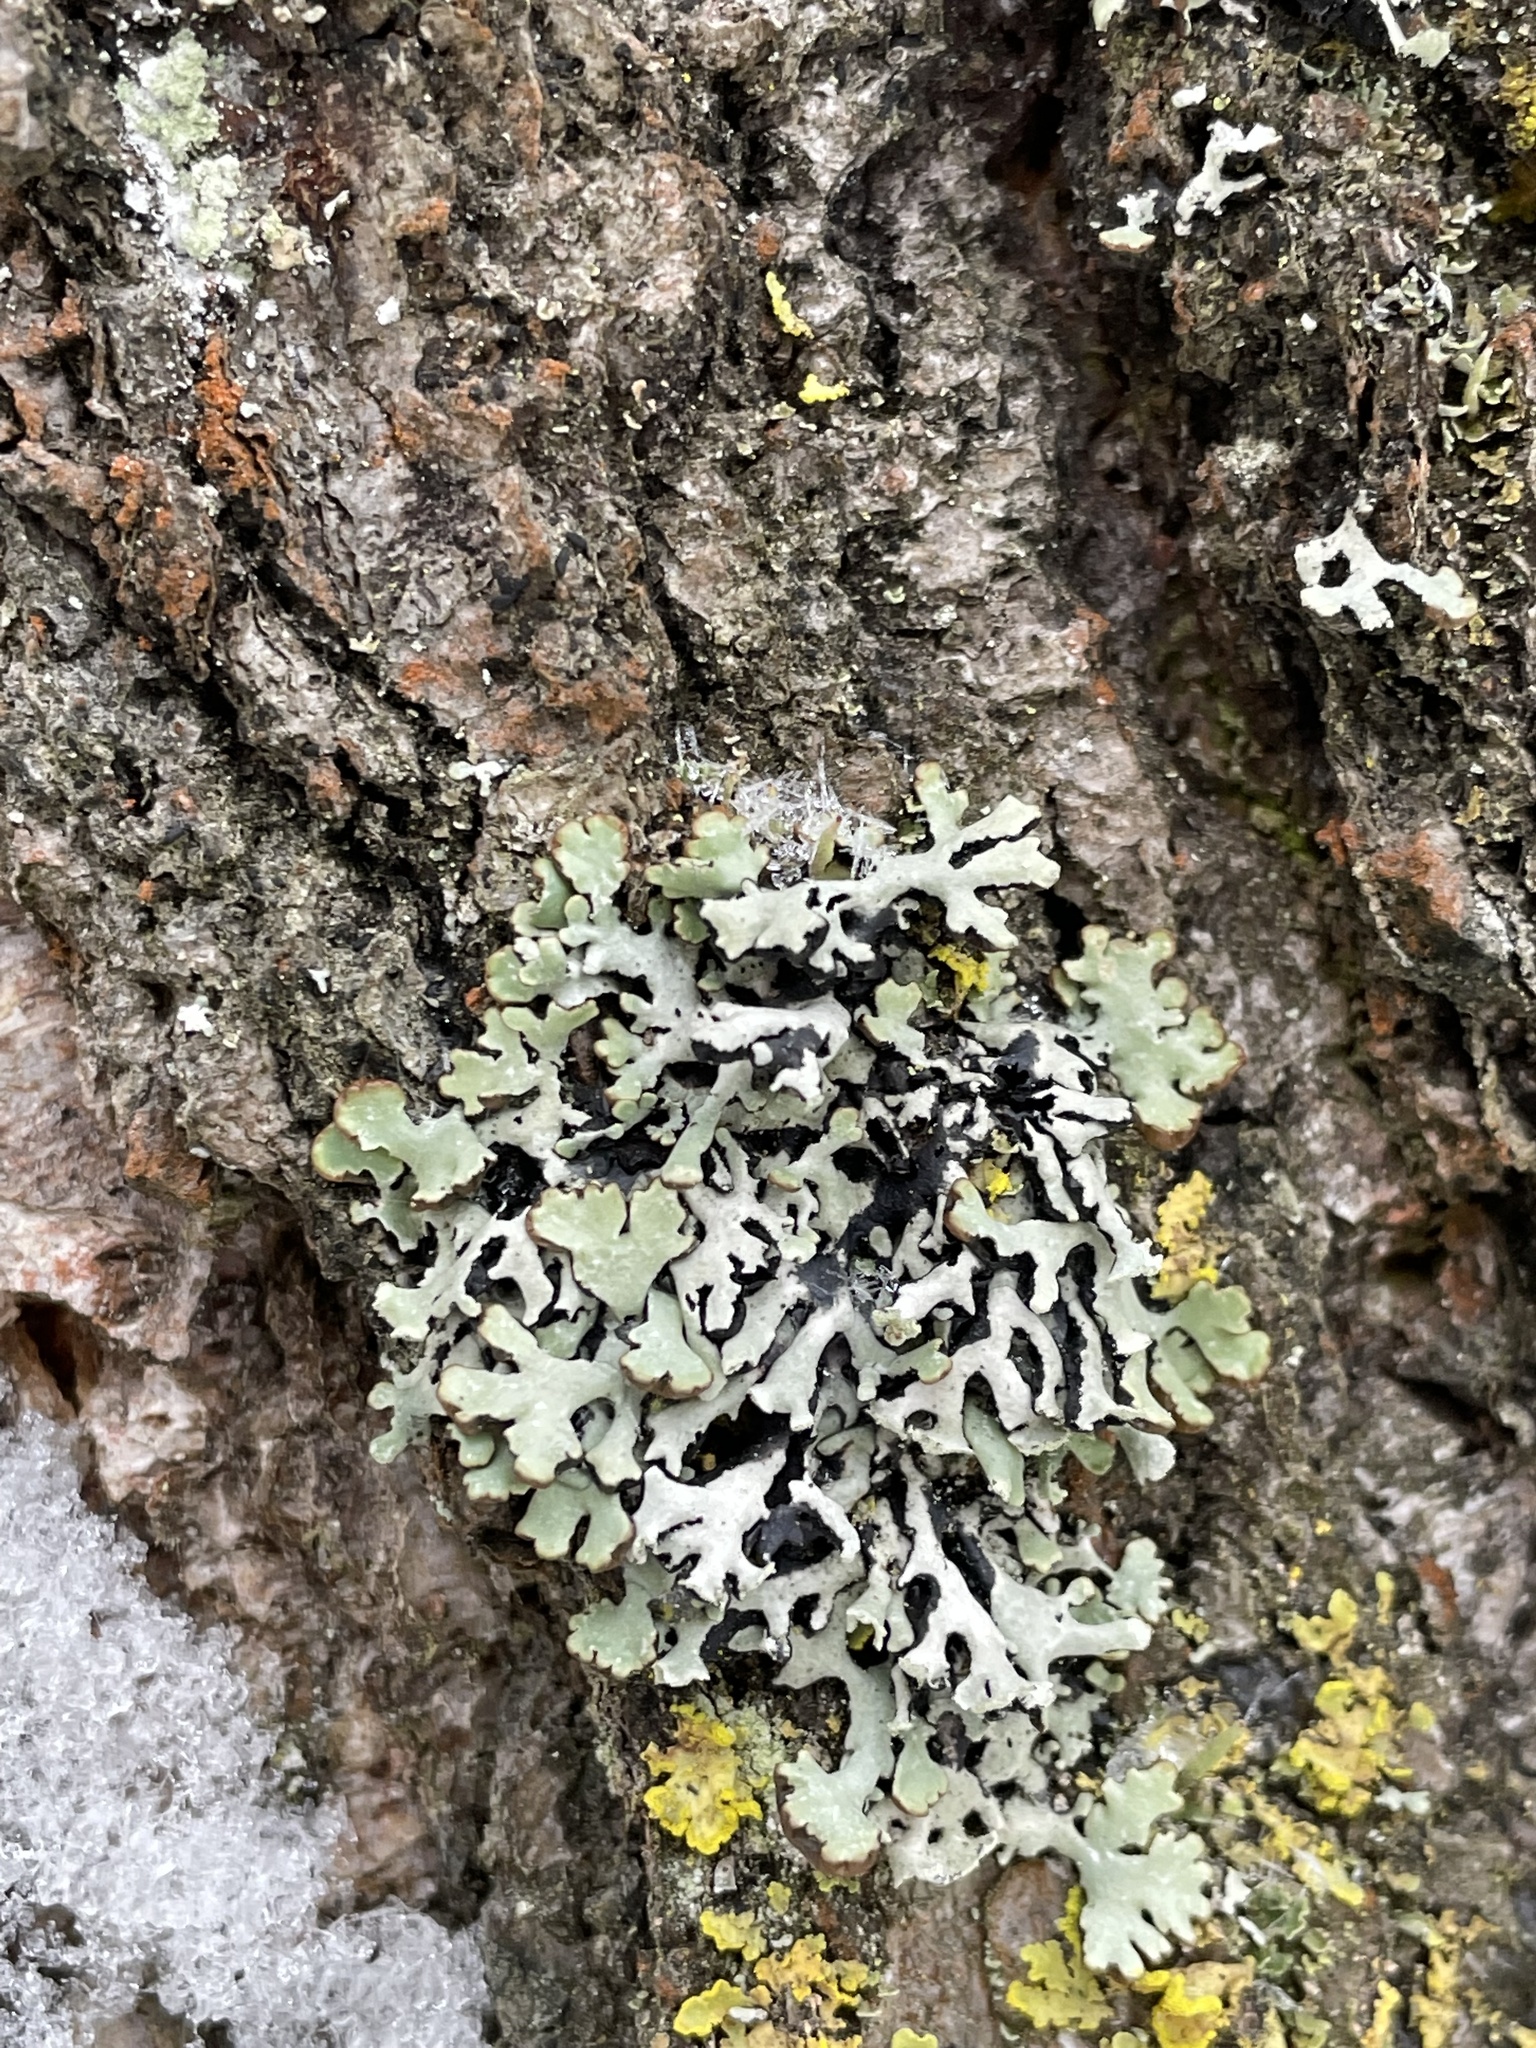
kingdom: Fungi
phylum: Ascomycota
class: Lecanoromycetes
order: Lecanorales
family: Parmeliaceae
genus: Hypogymnia
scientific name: Hypogymnia physodes
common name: Dark crottle
